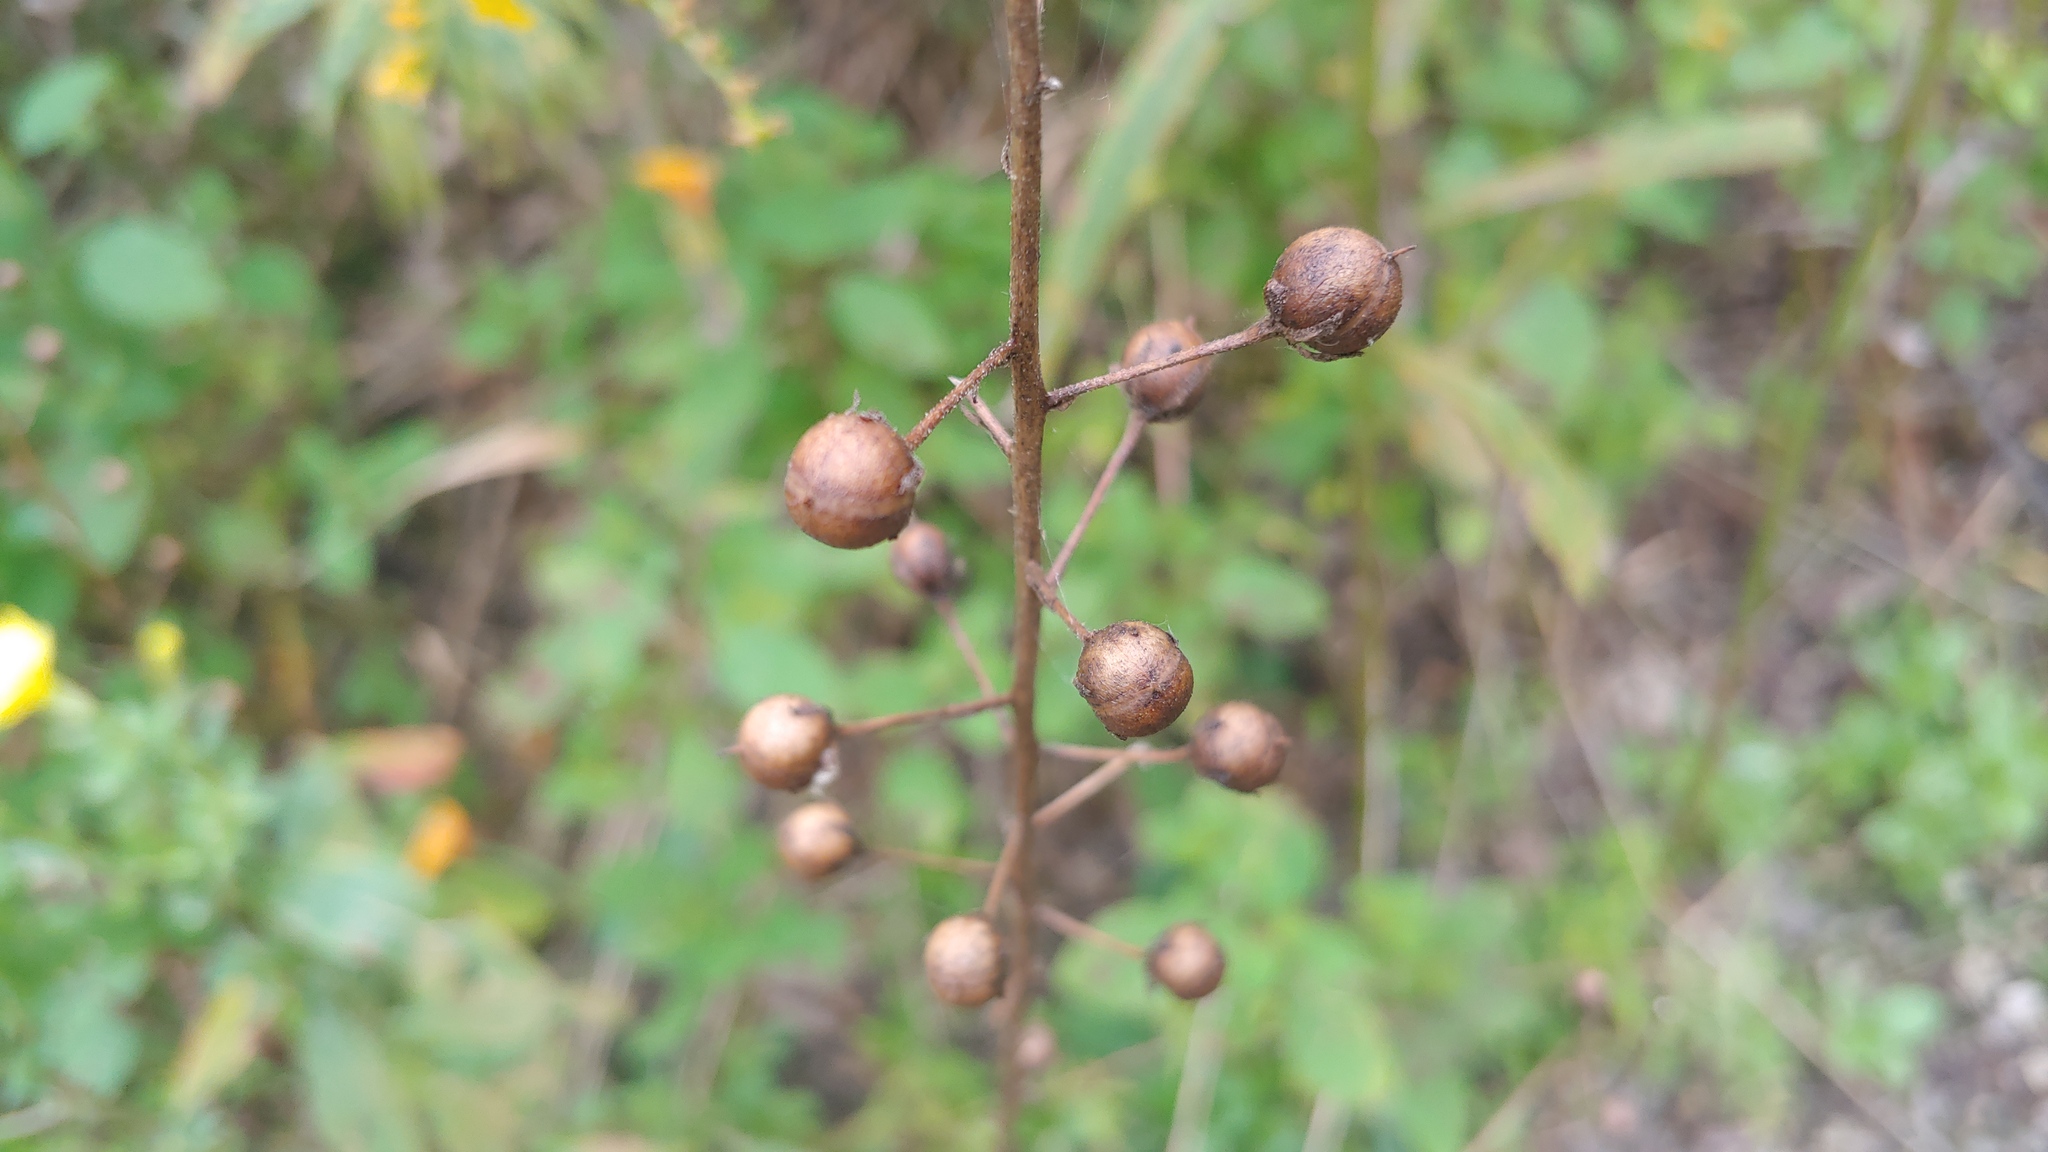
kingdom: Plantae
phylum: Tracheophyta
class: Magnoliopsida
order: Lamiales
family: Scrophulariaceae
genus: Verbascum
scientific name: Verbascum blattaria
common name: Moth mullein
